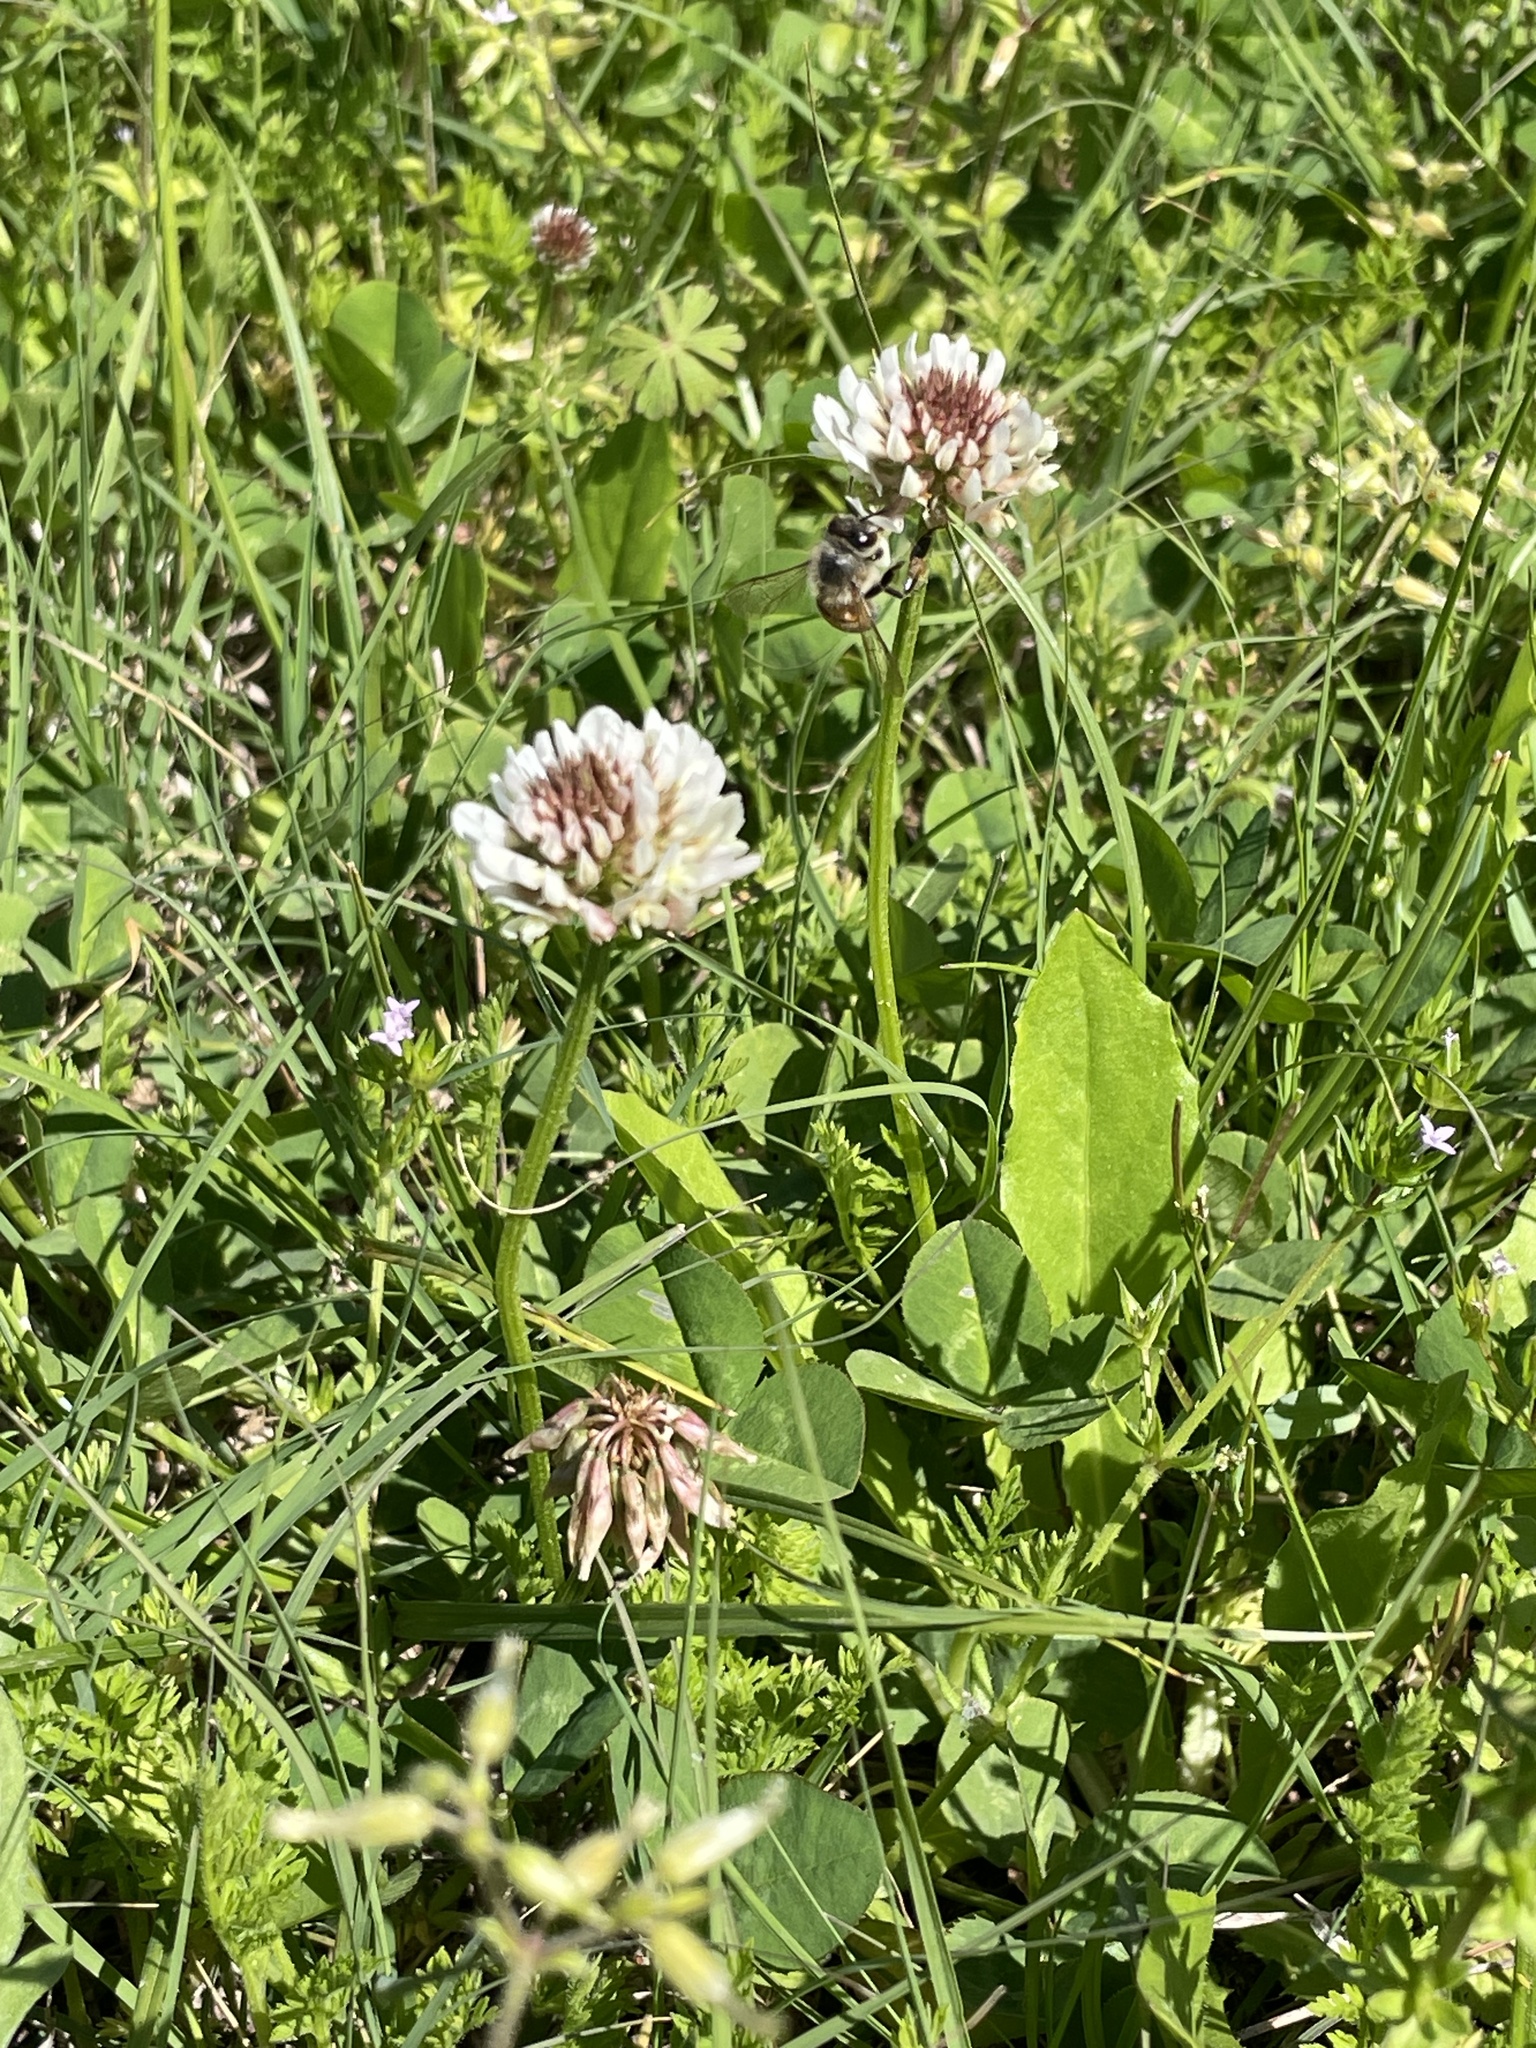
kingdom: Plantae
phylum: Tracheophyta
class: Magnoliopsida
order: Fabales
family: Fabaceae
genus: Trifolium
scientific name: Trifolium repens
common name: White clover
